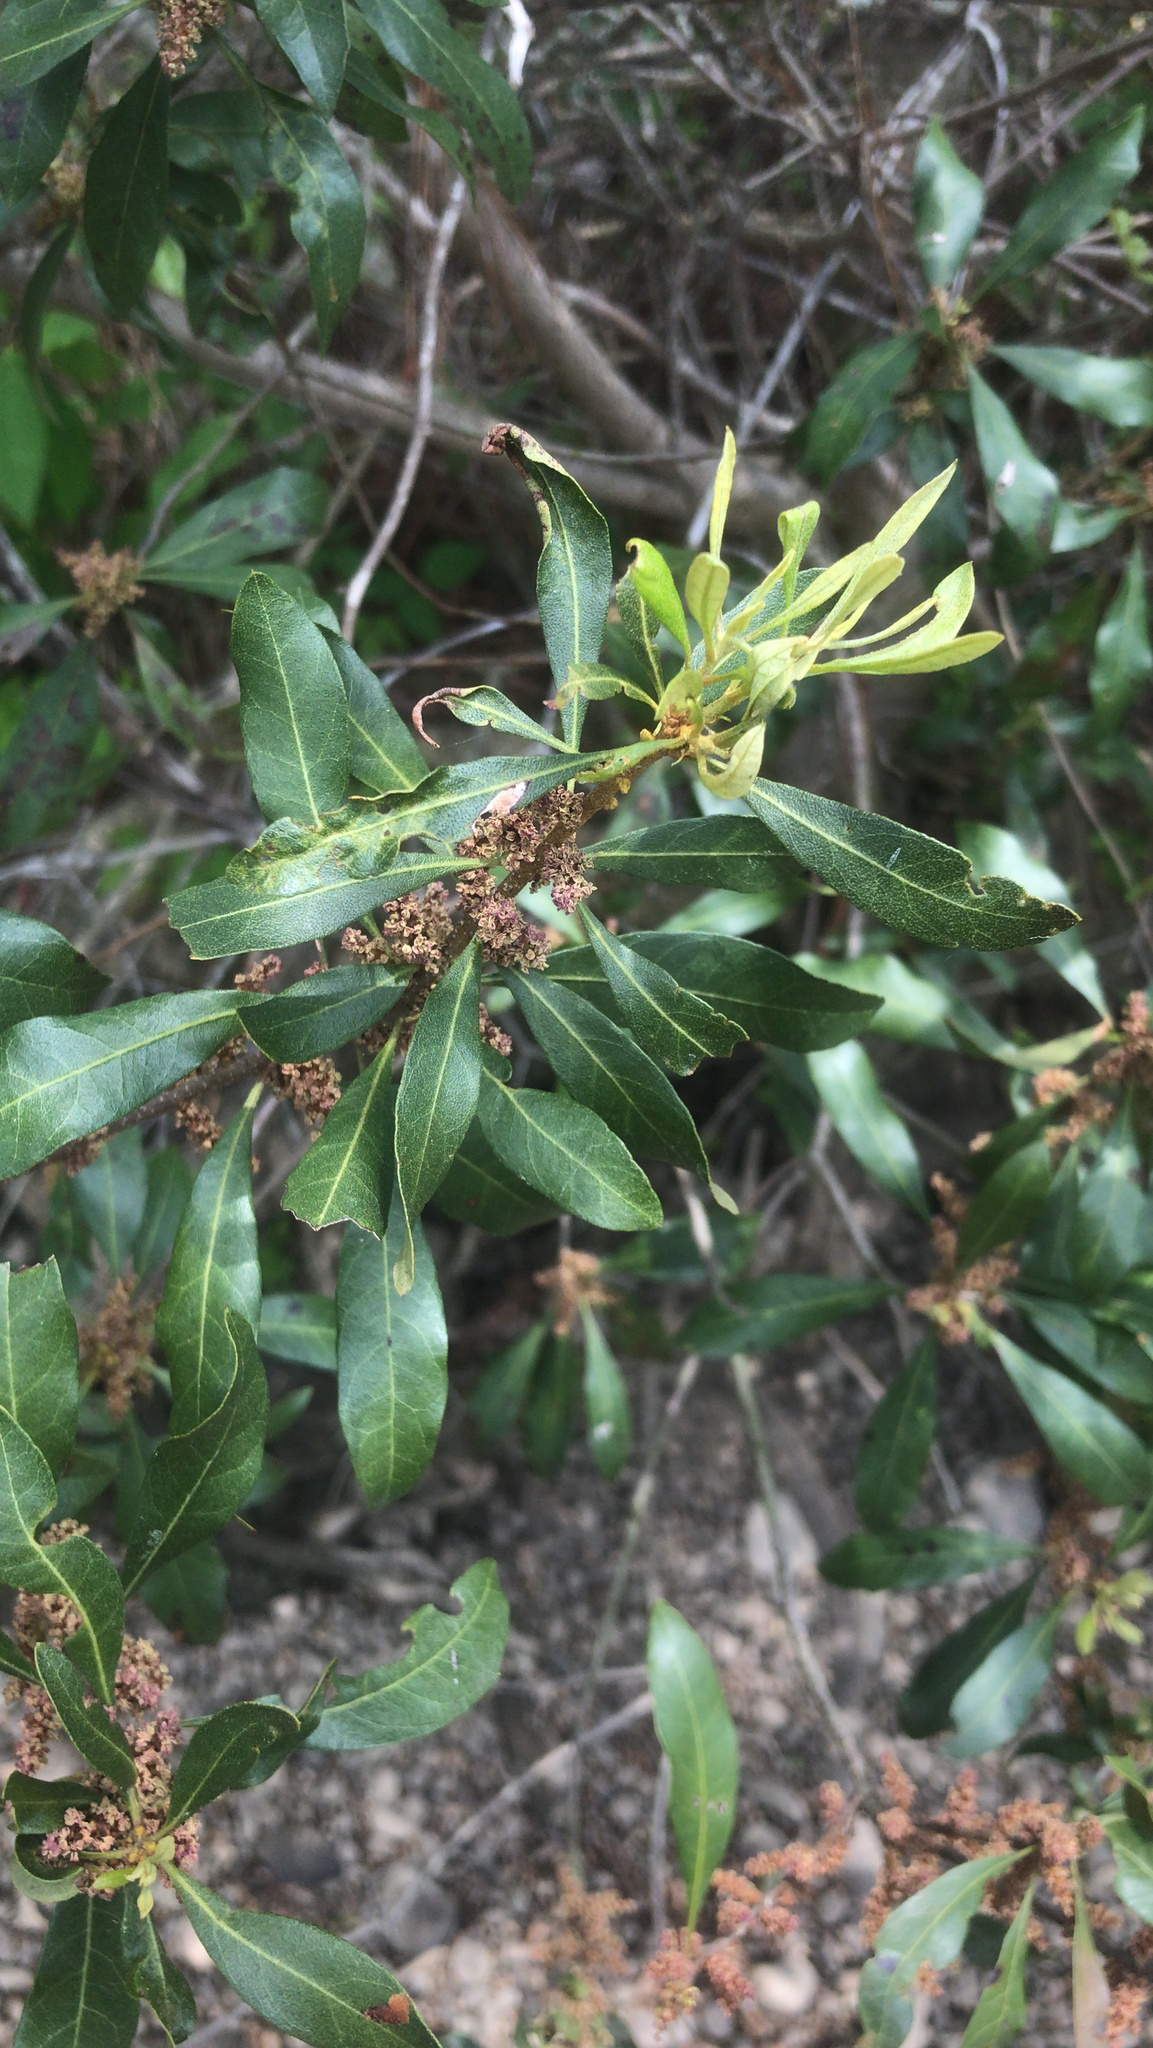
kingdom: Plantae
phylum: Tracheophyta
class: Magnoliopsida
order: Fagales
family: Myricaceae
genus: Morella
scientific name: Morella cerifera
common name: Wax myrtle
